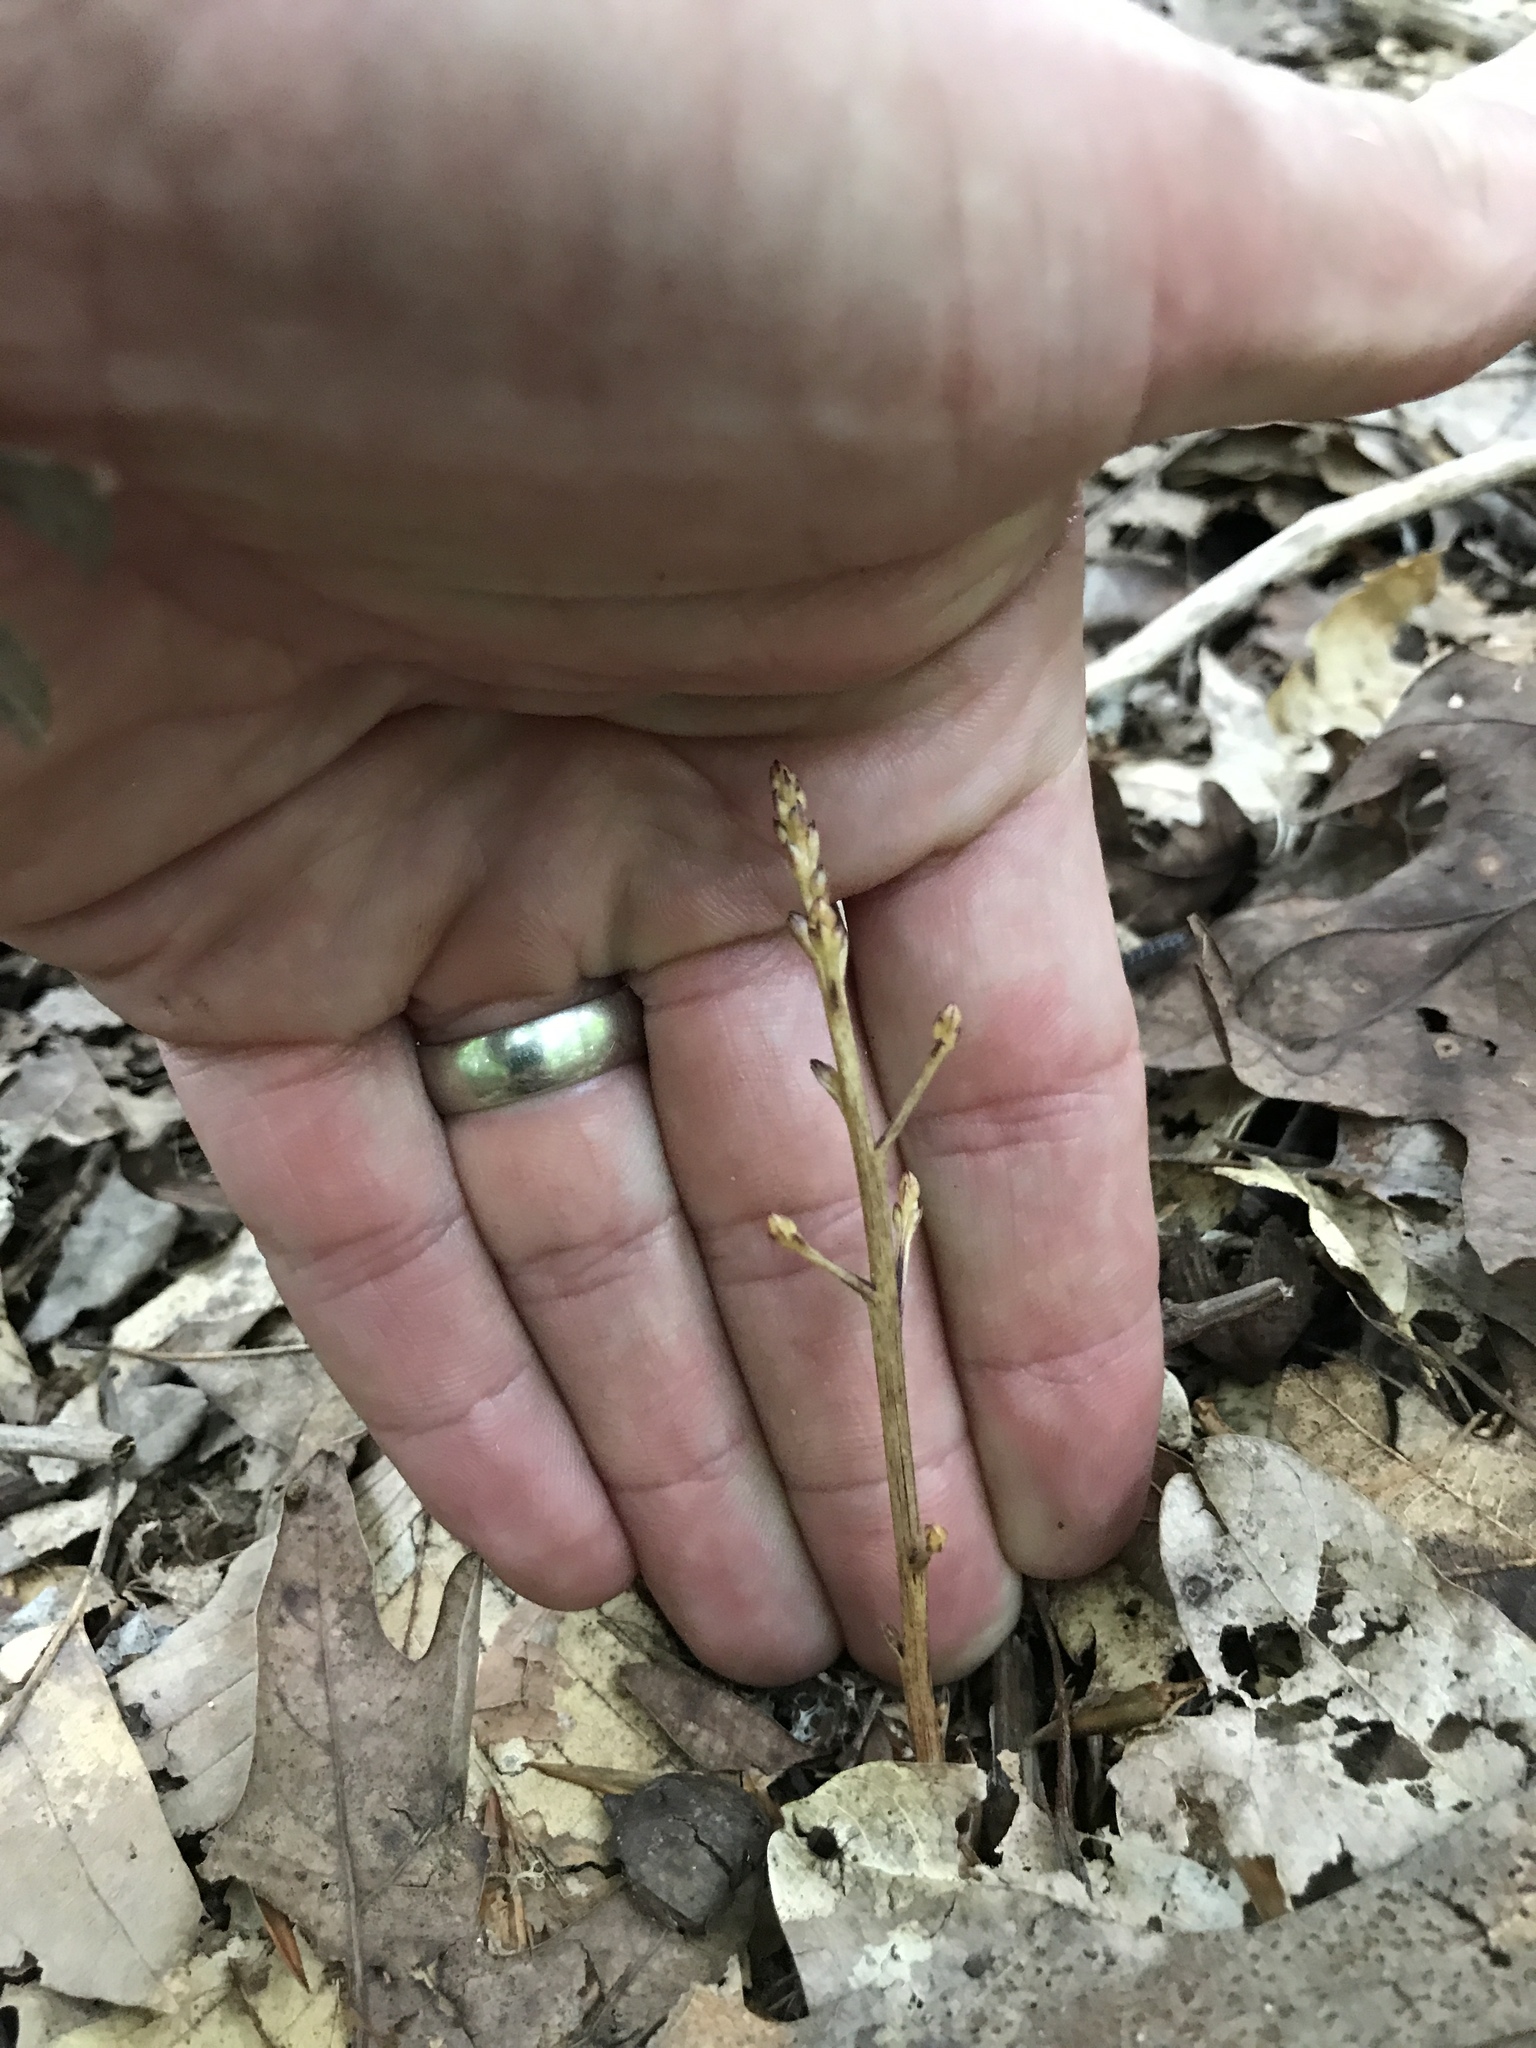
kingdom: Plantae
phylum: Tracheophyta
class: Magnoliopsida
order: Lamiales
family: Orobanchaceae
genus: Epifagus
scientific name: Epifagus virginiana
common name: Beechdrops
